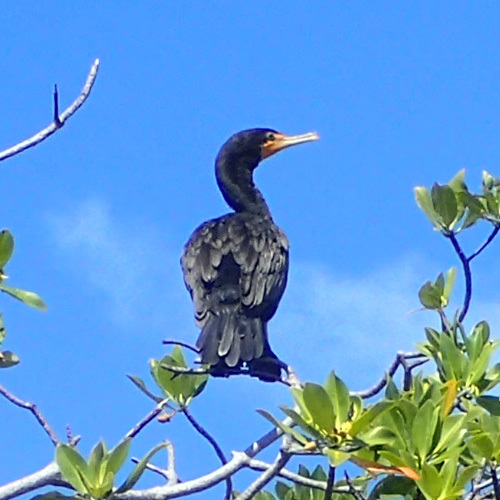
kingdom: Animalia
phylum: Chordata
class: Aves
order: Suliformes
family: Phalacrocoracidae
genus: Phalacrocorax
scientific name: Phalacrocorax auritus
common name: Double-crested cormorant
